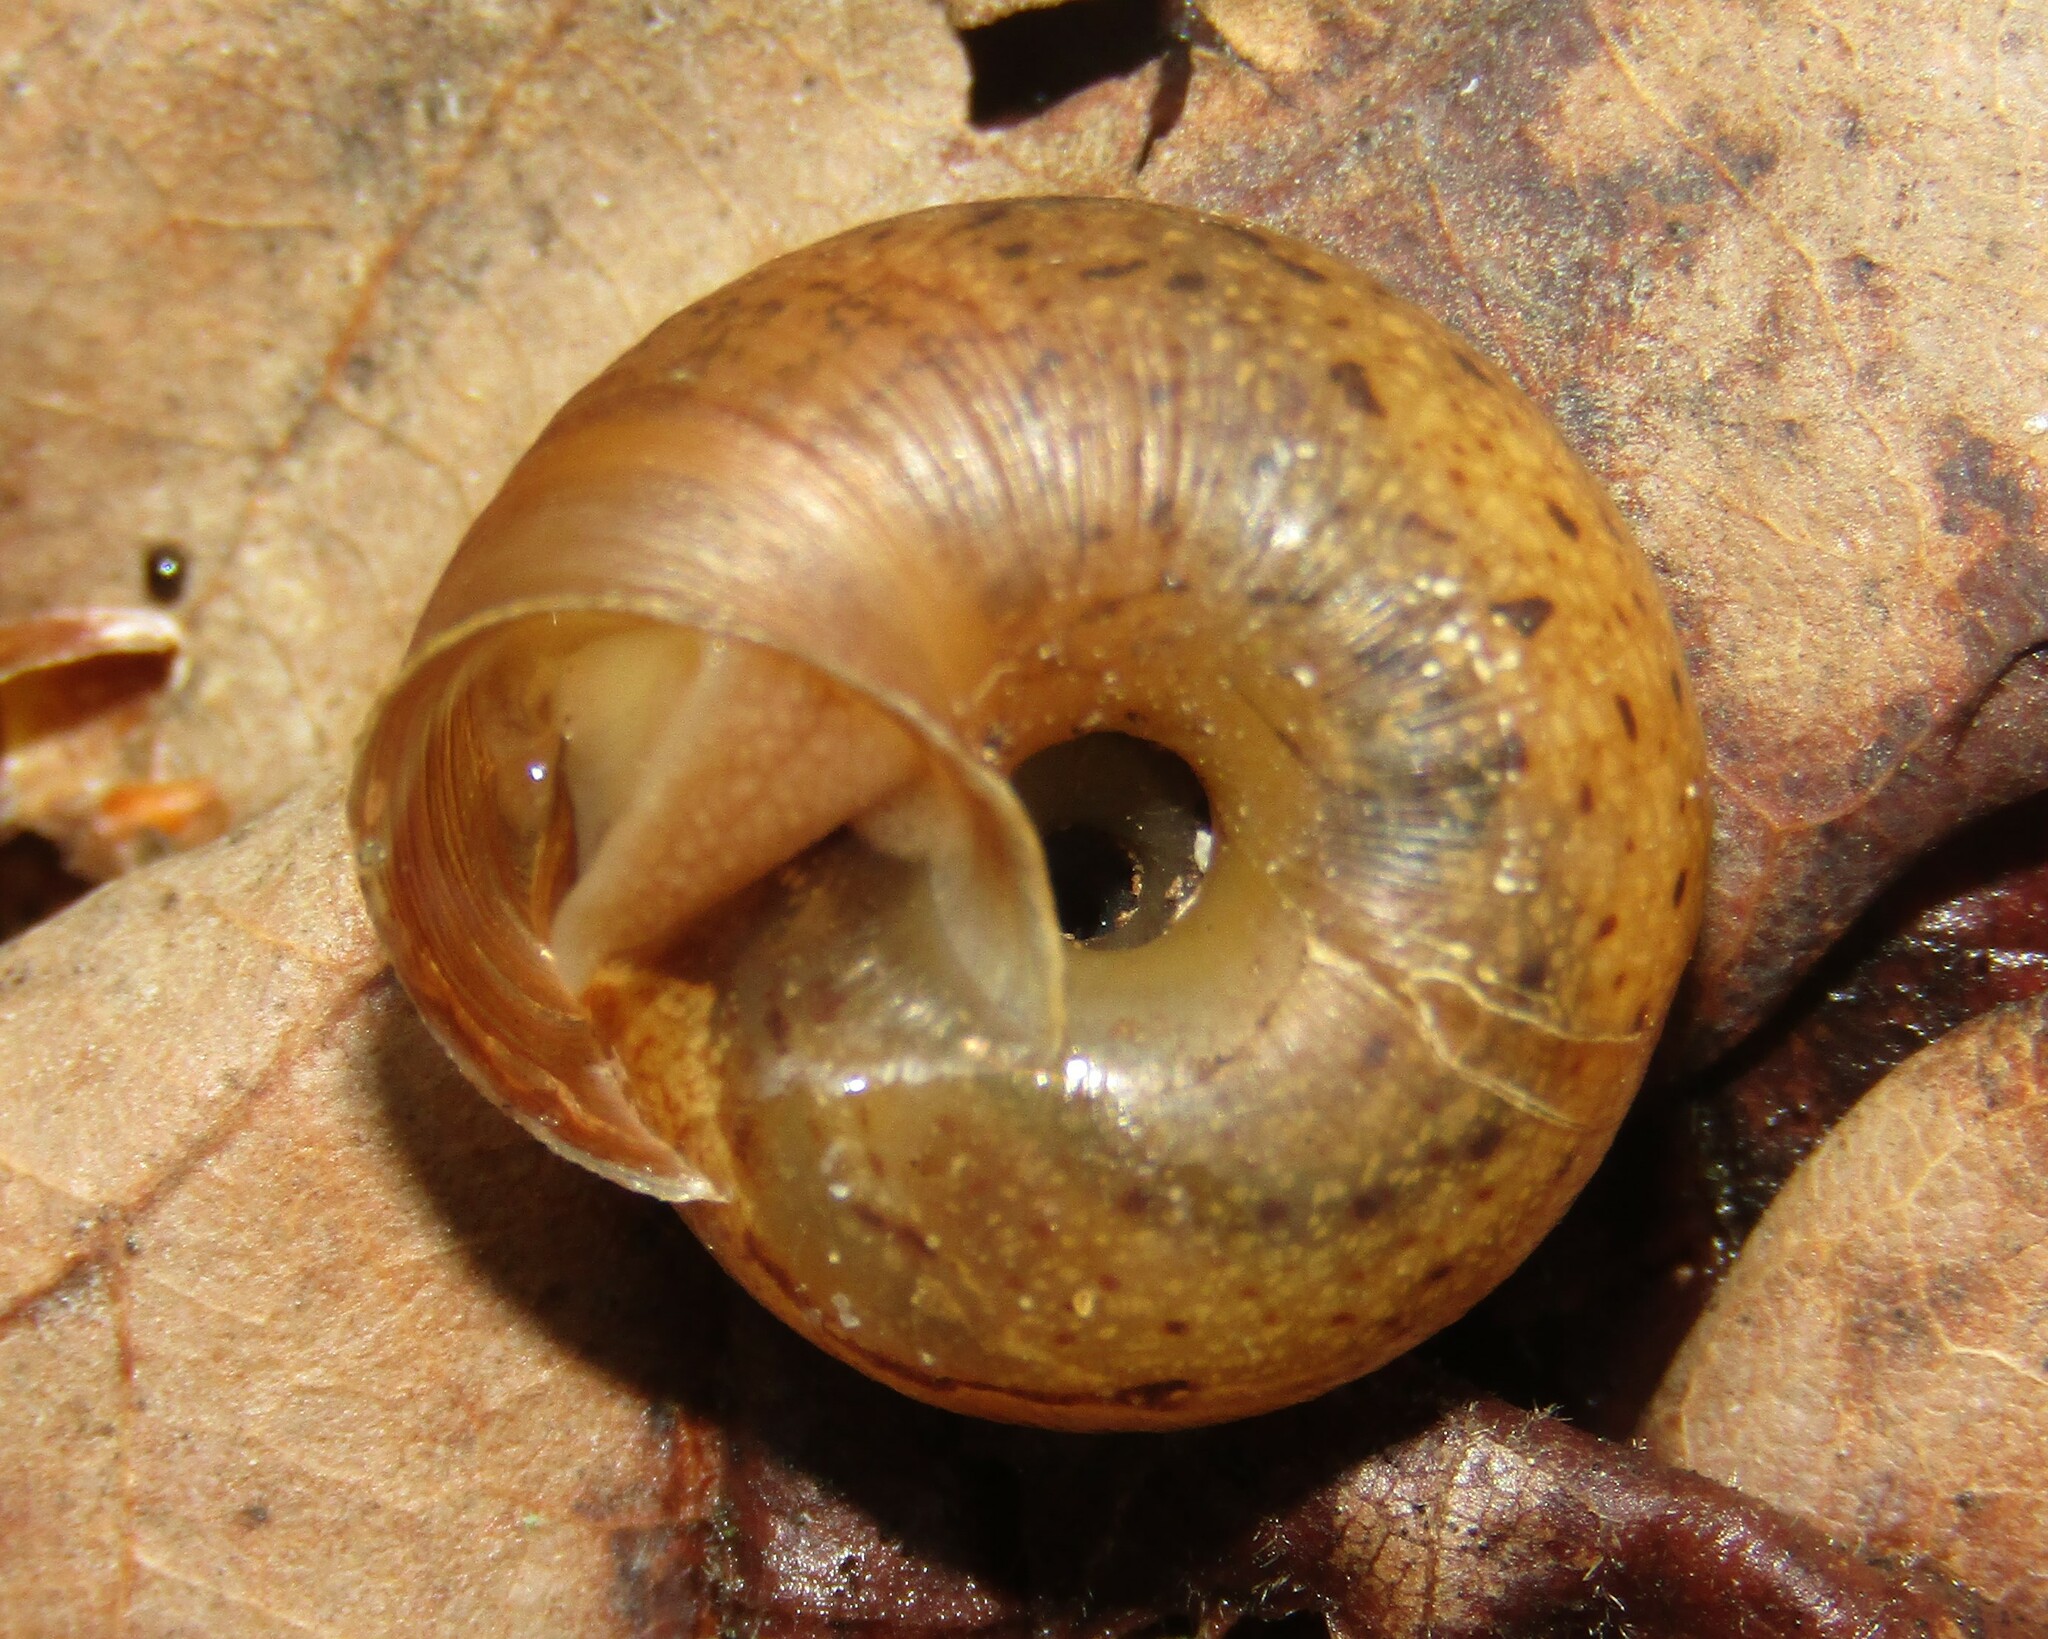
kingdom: Animalia
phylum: Mollusca
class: Gastropoda
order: Stylommatophora
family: Hygromiidae
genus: Euomphalia
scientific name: Euomphalia strigella
